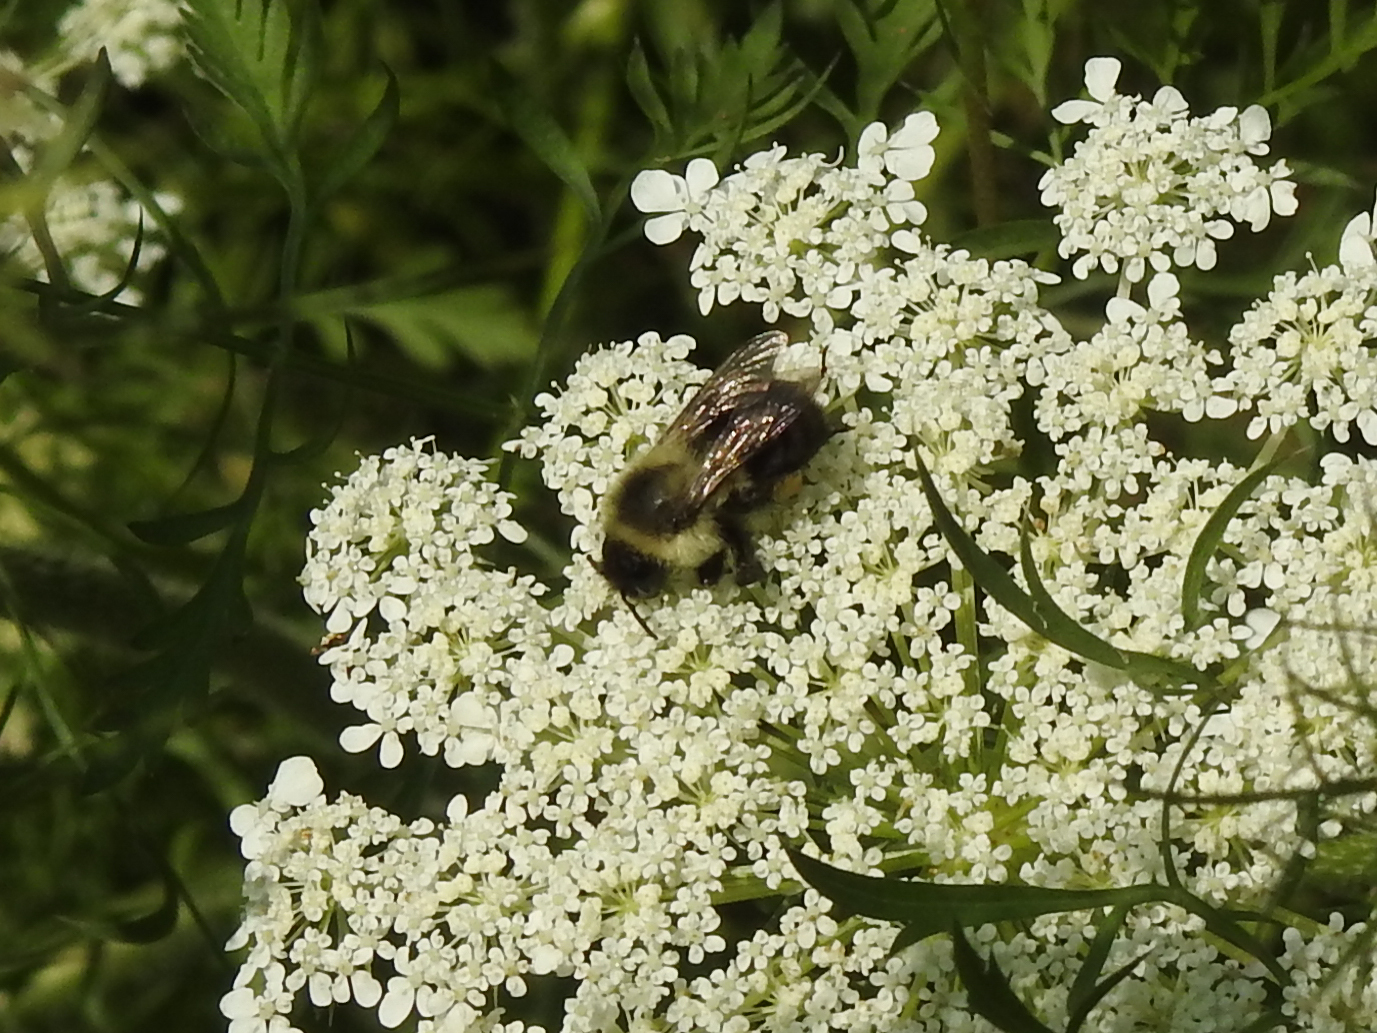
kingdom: Animalia
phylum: Arthropoda
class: Insecta
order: Hymenoptera
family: Apidae
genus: Bombus
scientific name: Bombus impatiens
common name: Common eastern bumble bee
